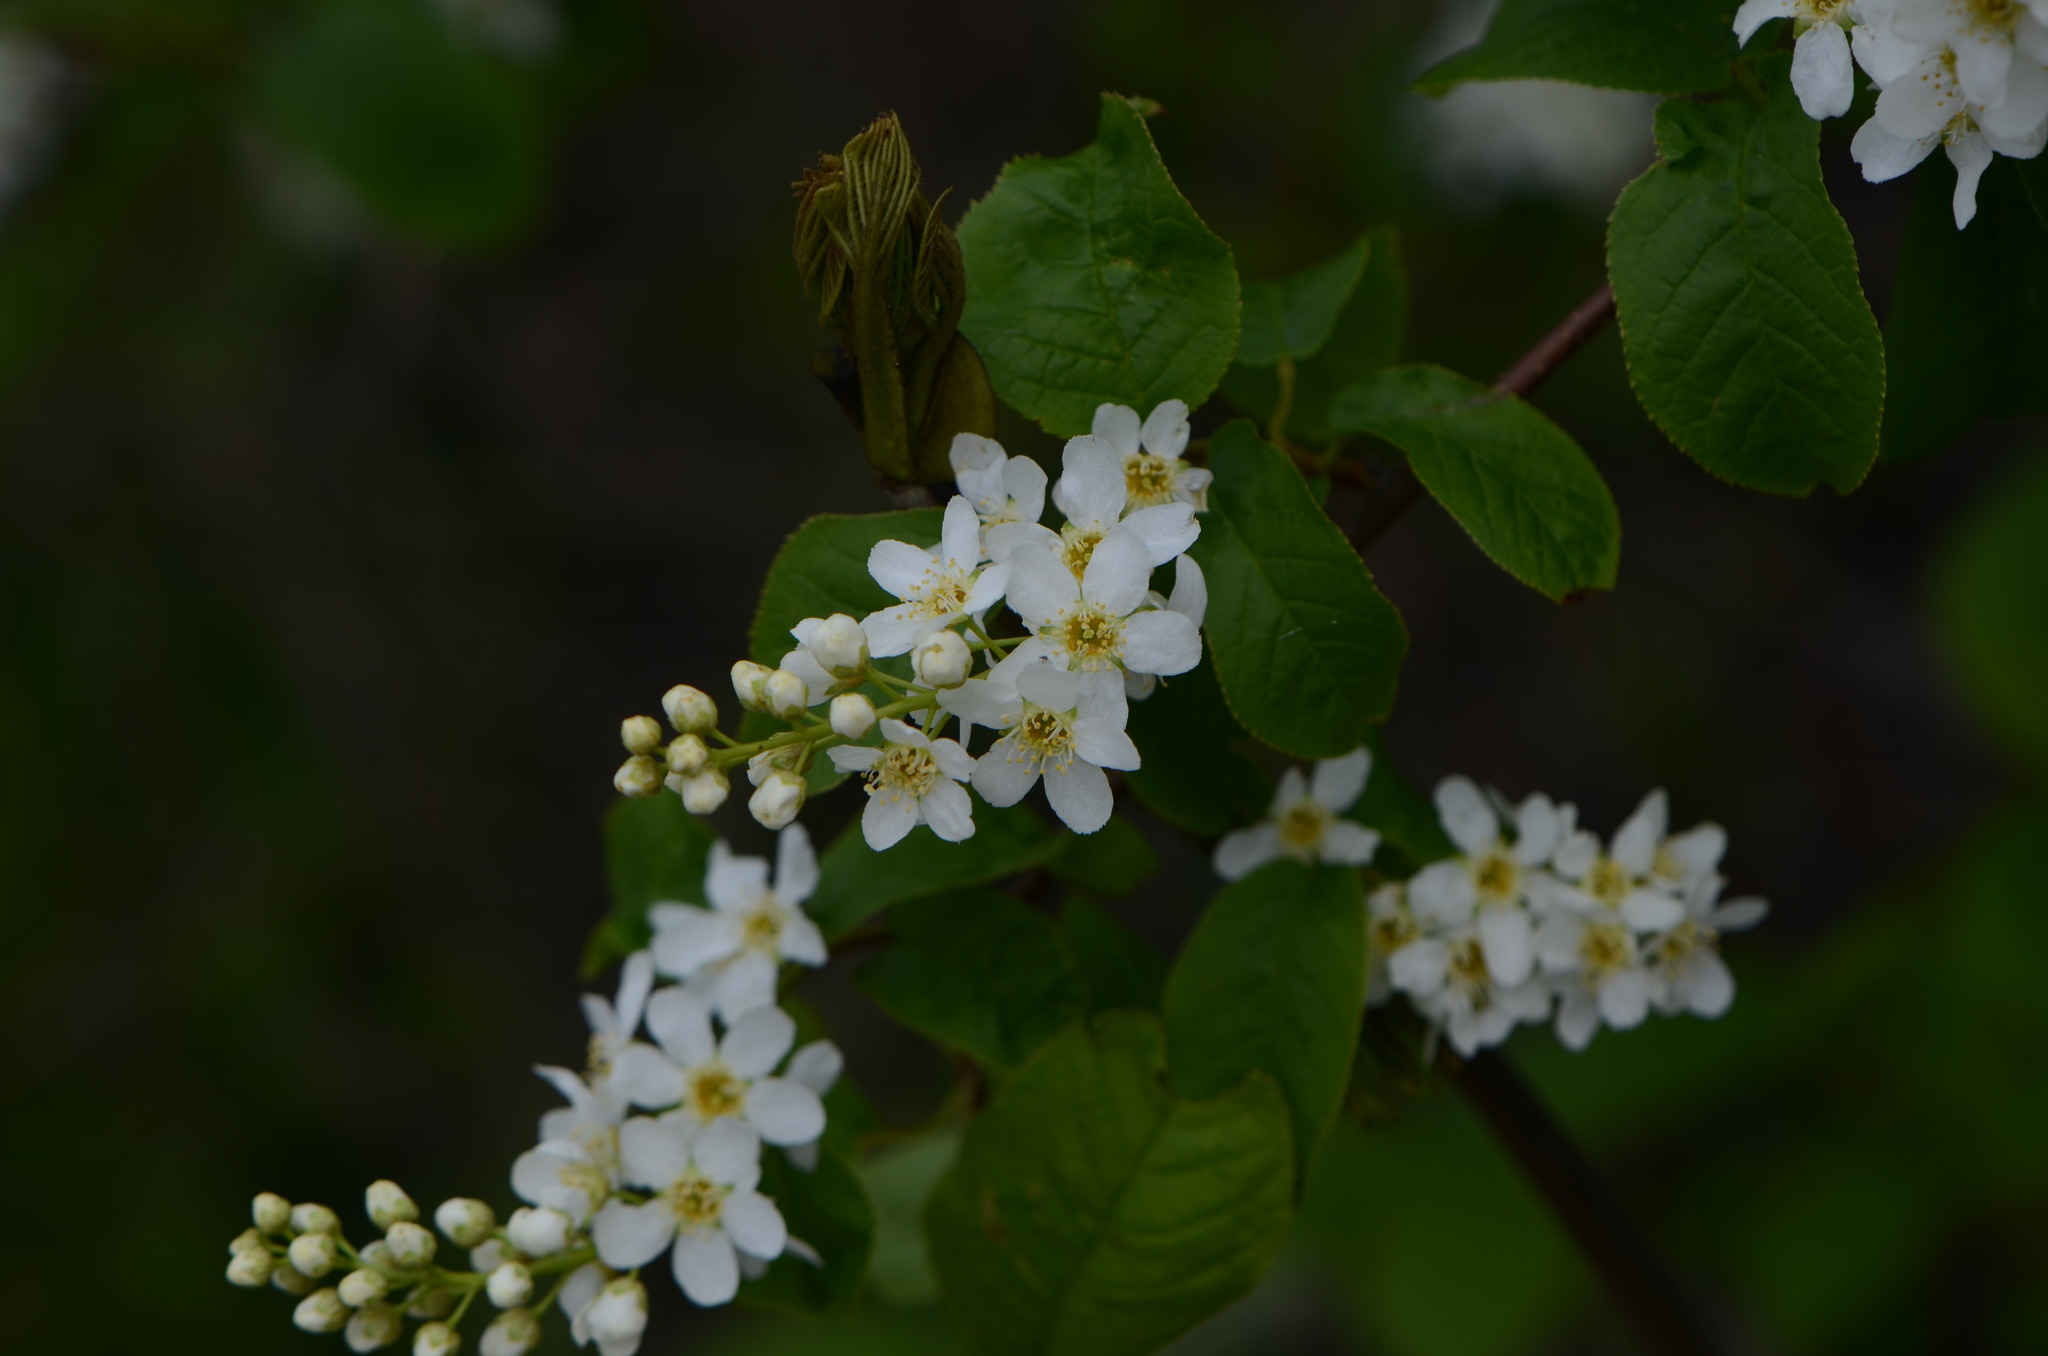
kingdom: Plantae
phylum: Tracheophyta
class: Magnoliopsida
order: Rosales
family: Rosaceae
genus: Prunus
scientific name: Prunus padus
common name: Bird cherry
